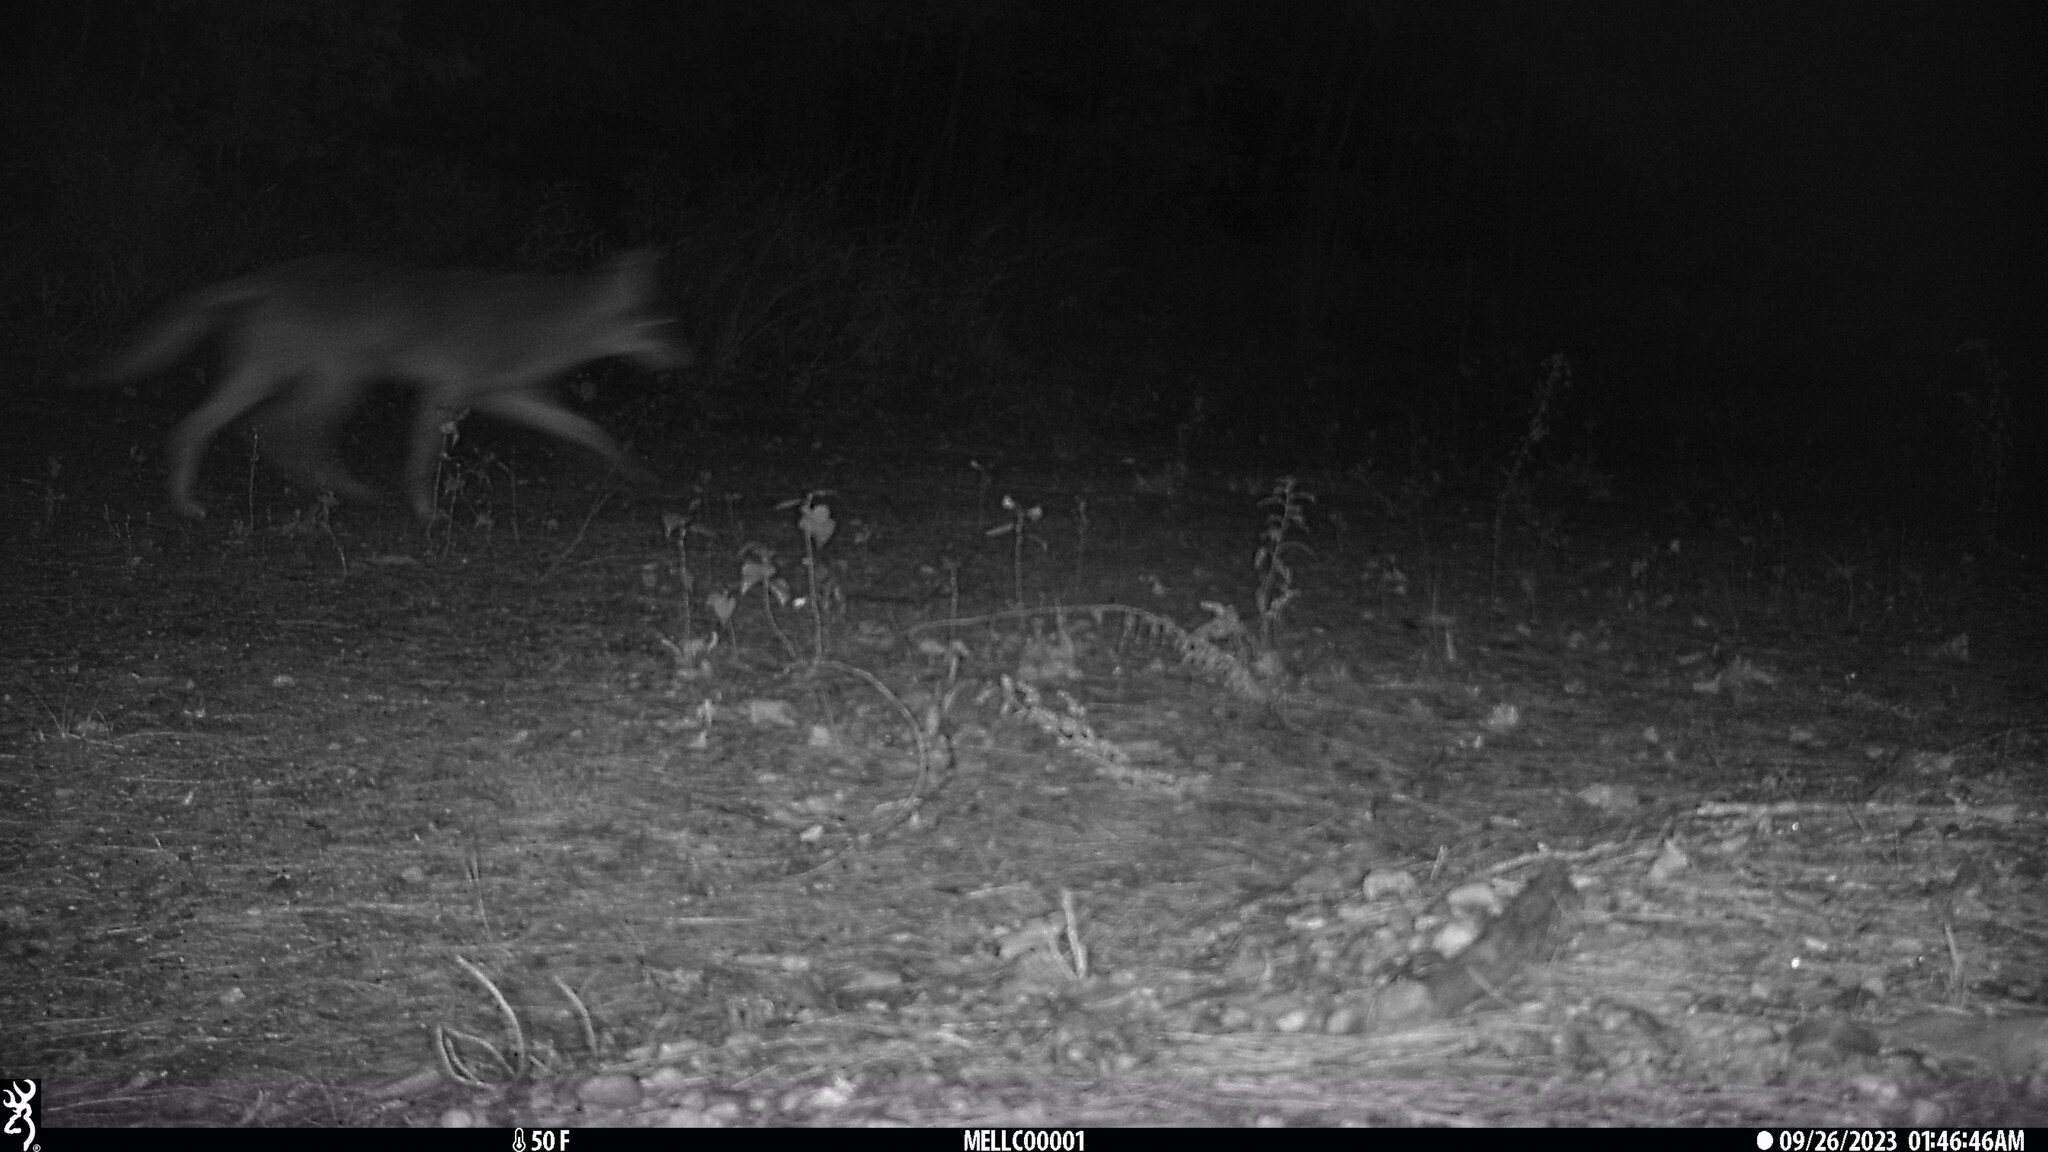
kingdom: Animalia
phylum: Chordata
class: Mammalia
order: Carnivora
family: Canidae
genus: Canis
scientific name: Canis latrans
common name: Coyote
